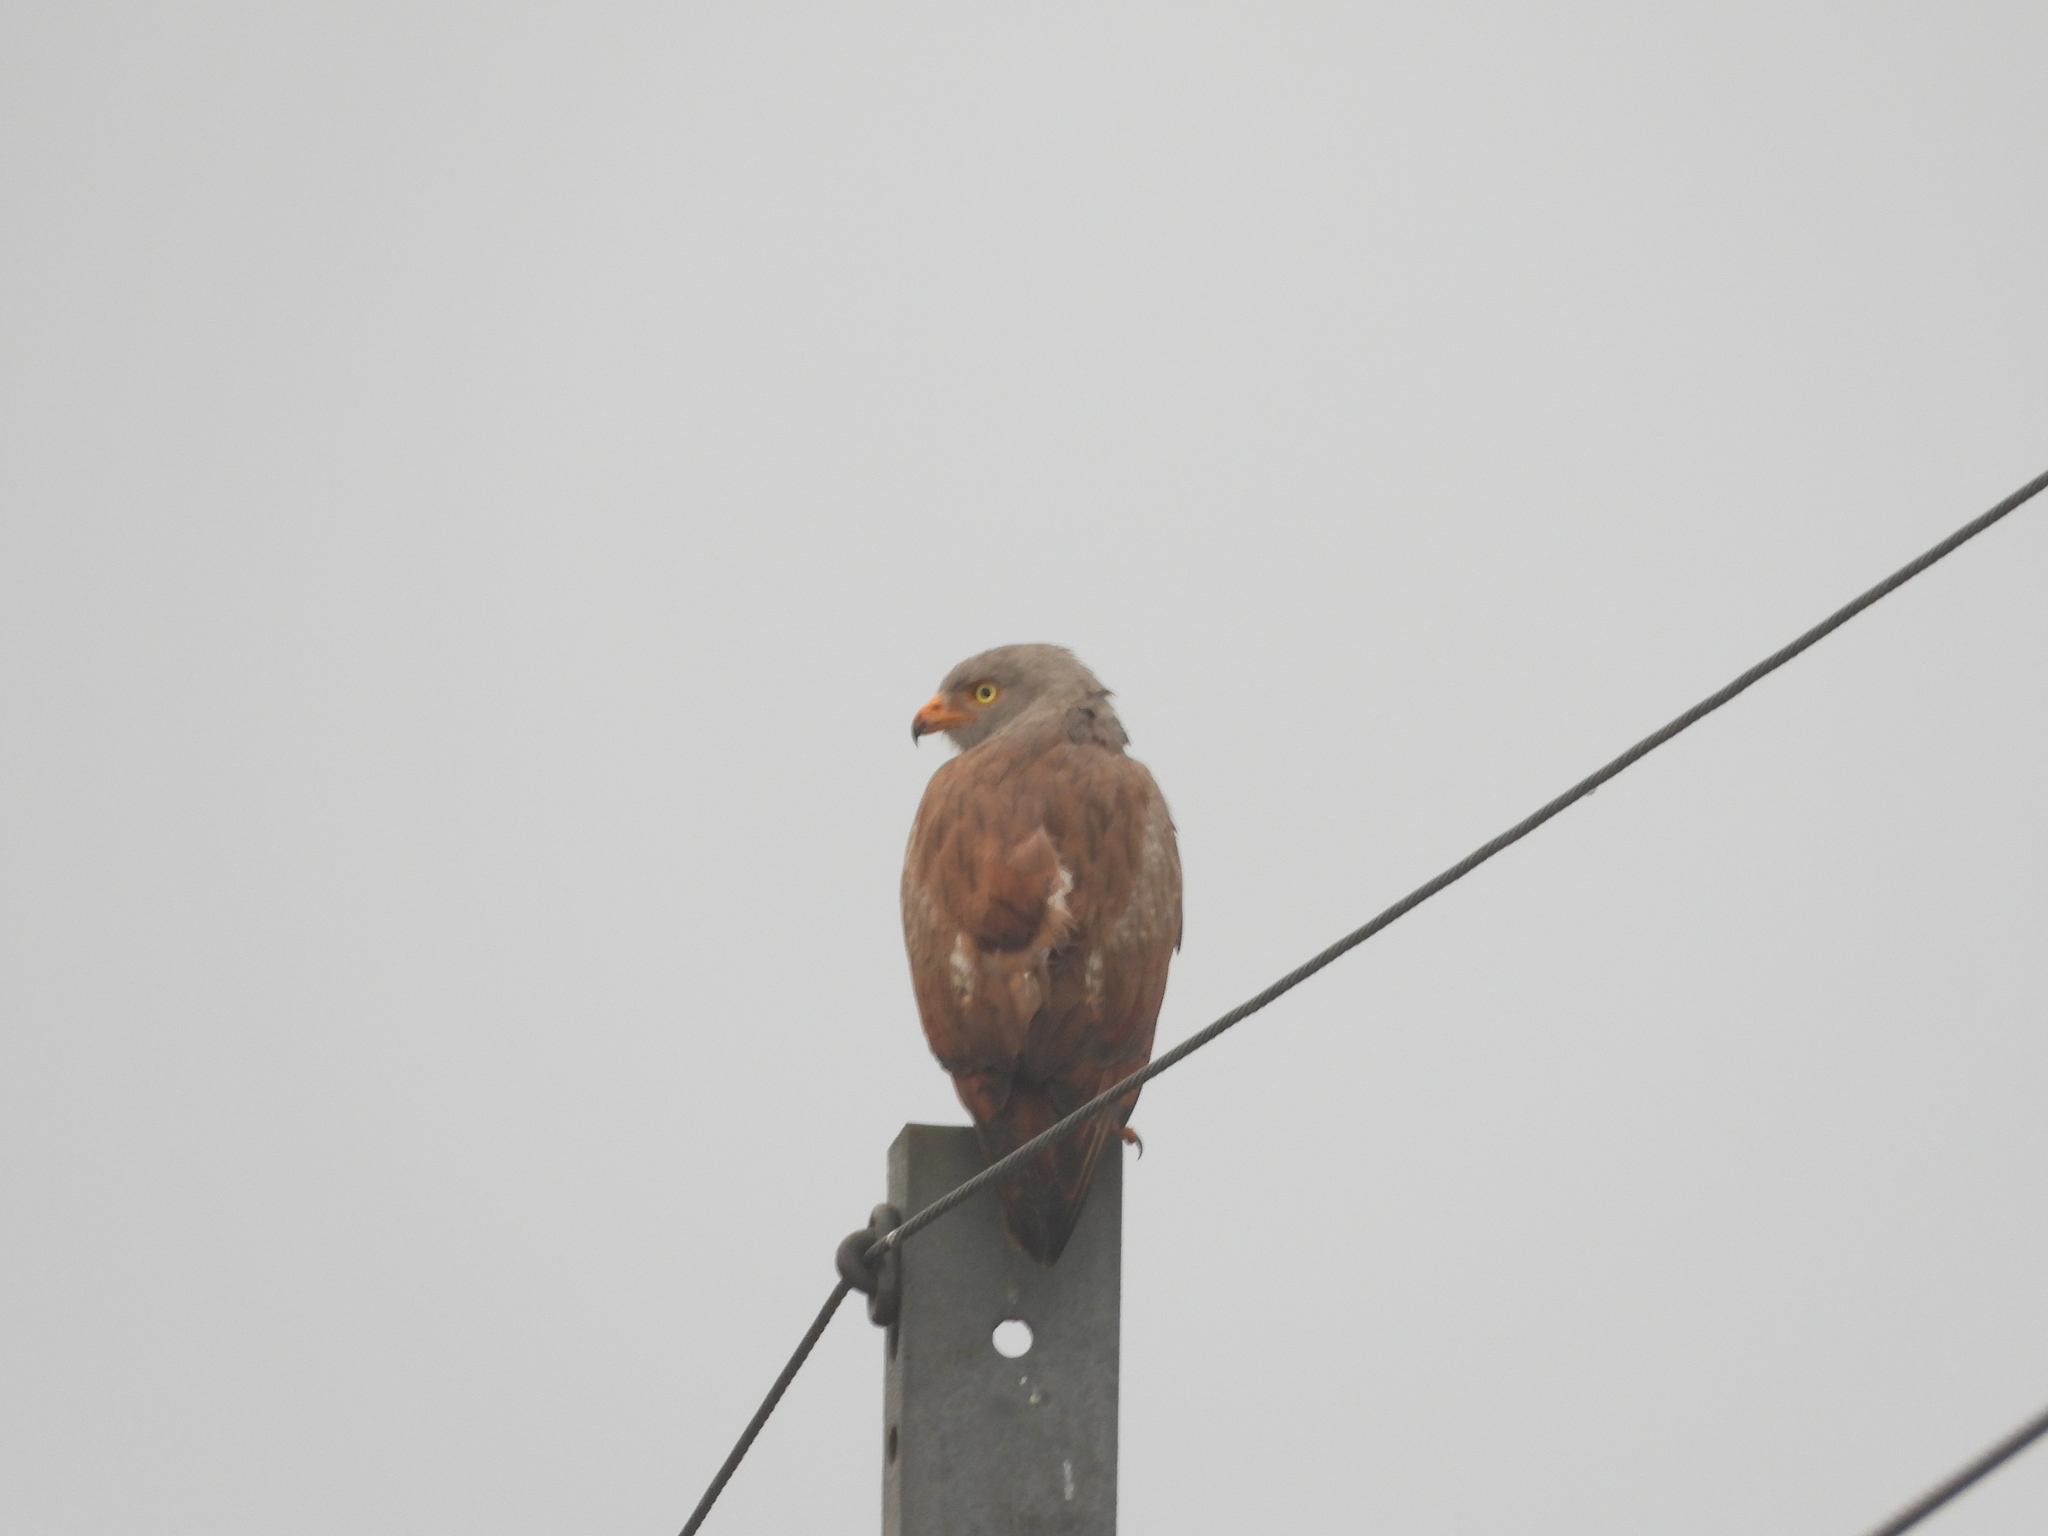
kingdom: Animalia
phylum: Chordata
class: Aves
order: Accipitriformes
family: Accipitridae
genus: Butastur
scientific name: Butastur liventer
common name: Rufous-winged buzzard
